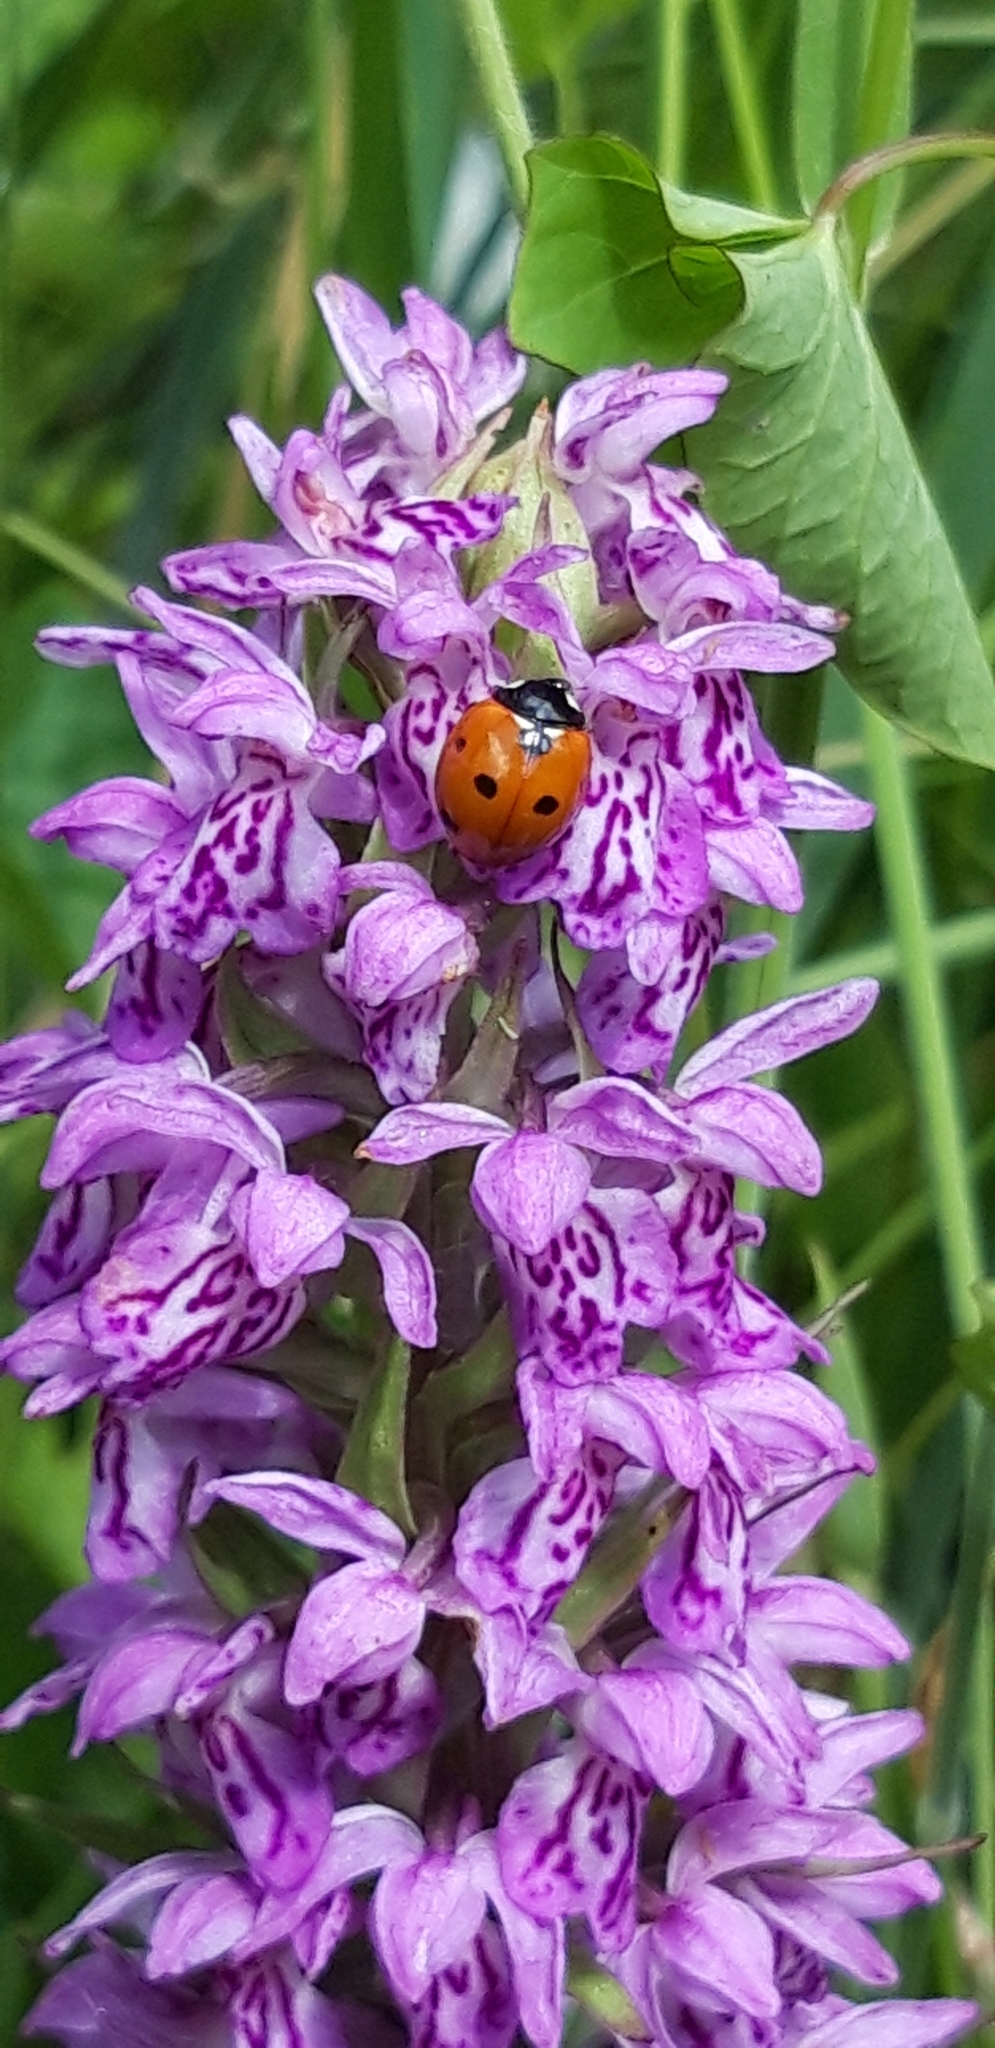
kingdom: Animalia
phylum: Arthropoda
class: Insecta
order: Coleoptera
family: Coccinellidae
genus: Coccinella
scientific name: Coccinella septempunctata
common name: Sevenspotted lady beetle
